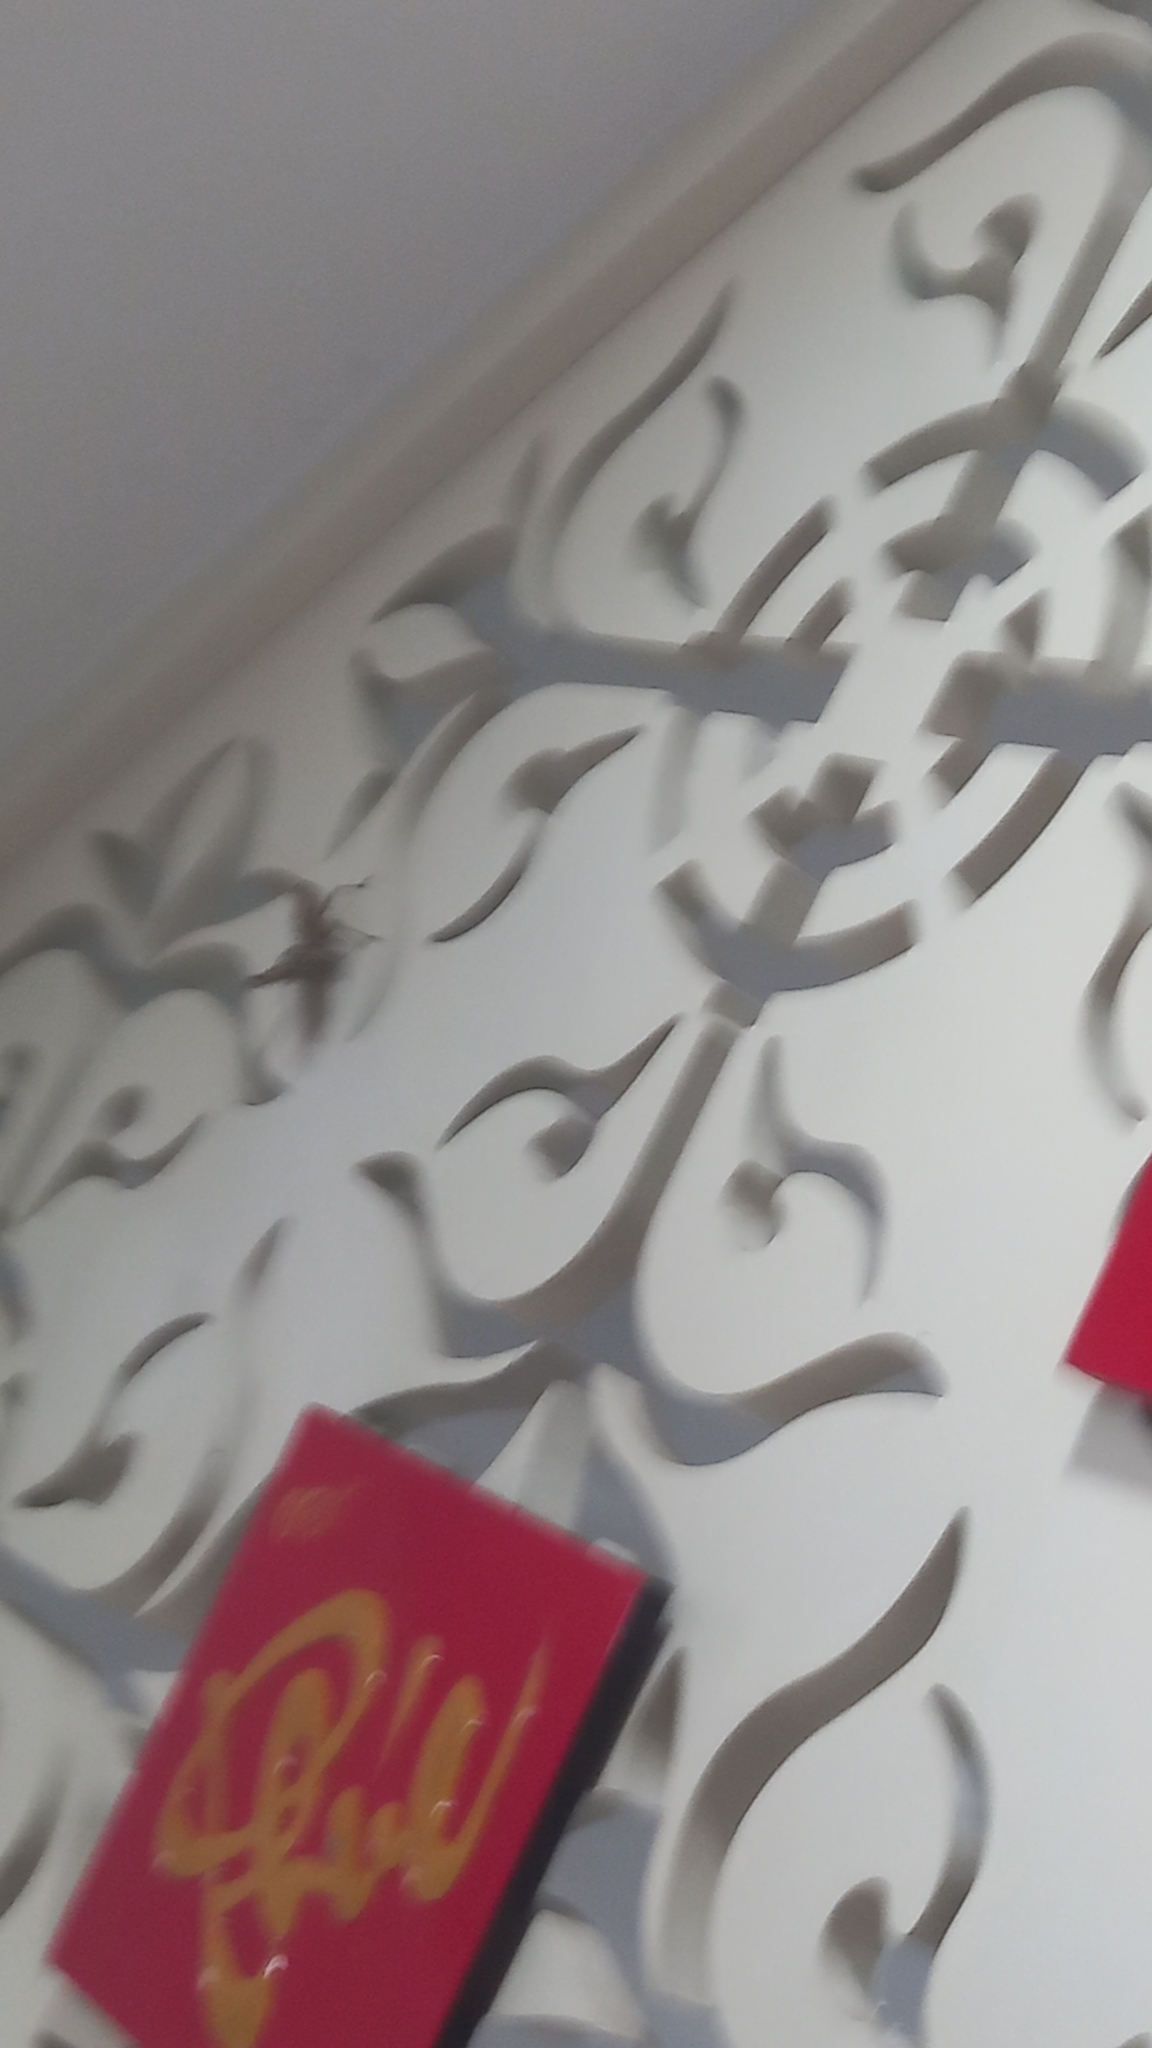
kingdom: Animalia
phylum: Arthropoda
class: Insecta
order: Orthoptera
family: Acrididae
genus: Cyrtacanthacris
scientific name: Cyrtacanthacris tatarica
